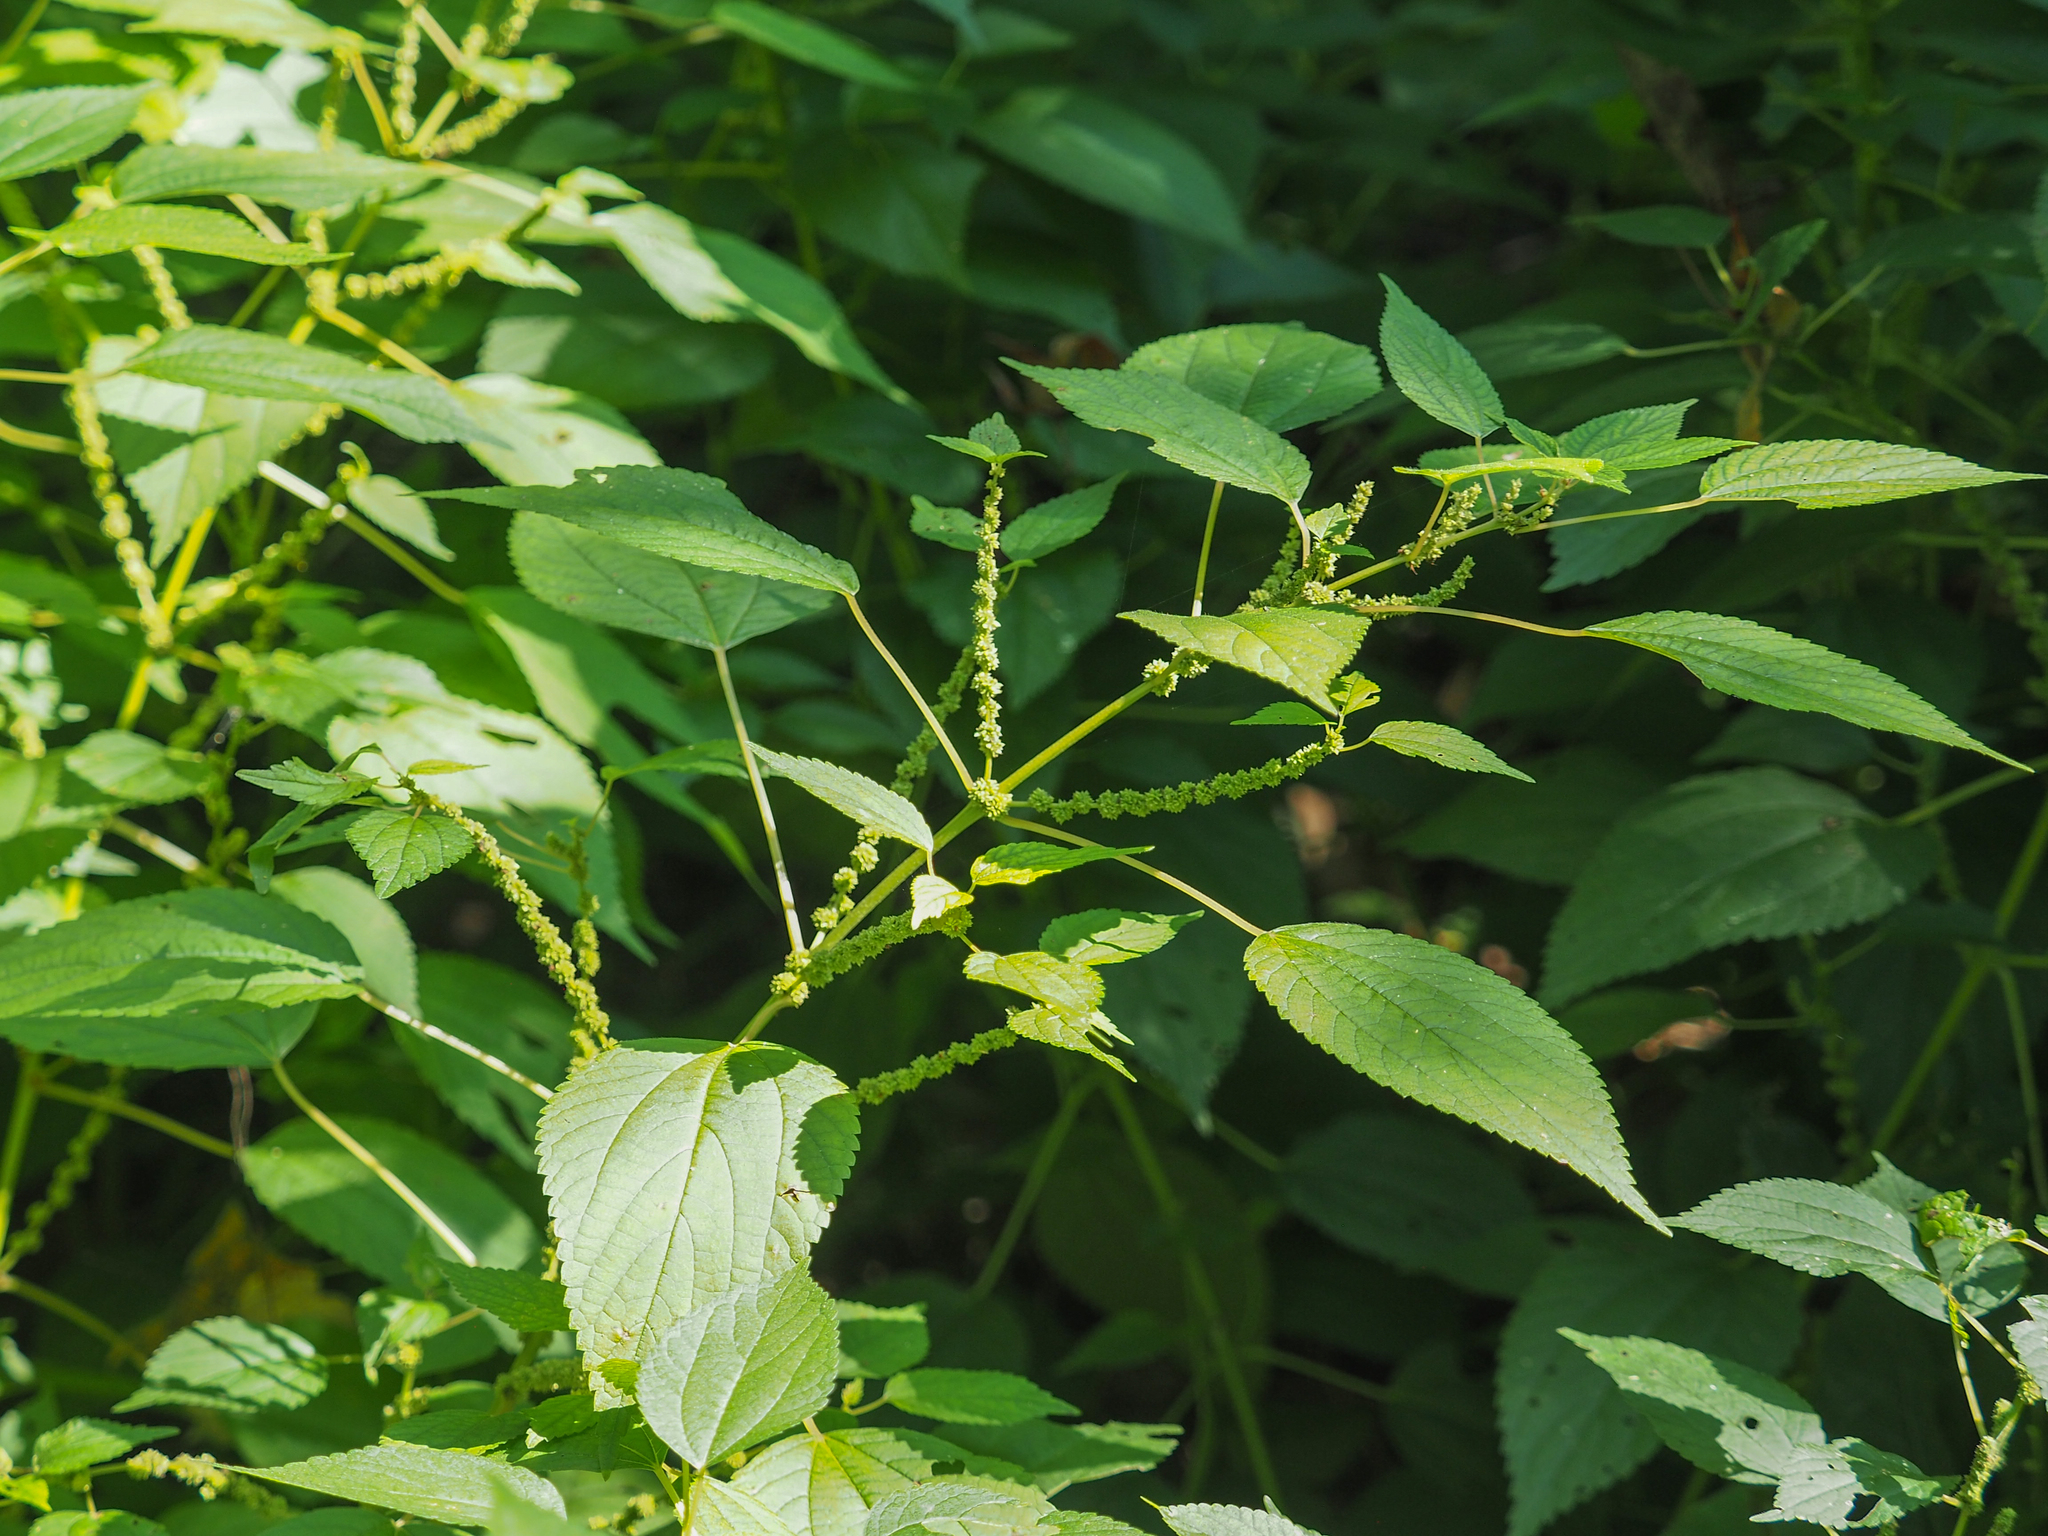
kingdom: Plantae
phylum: Tracheophyta
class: Magnoliopsida
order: Rosales
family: Urticaceae
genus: Boehmeria
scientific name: Boehmeria cylindrica
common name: Bog-hemp
